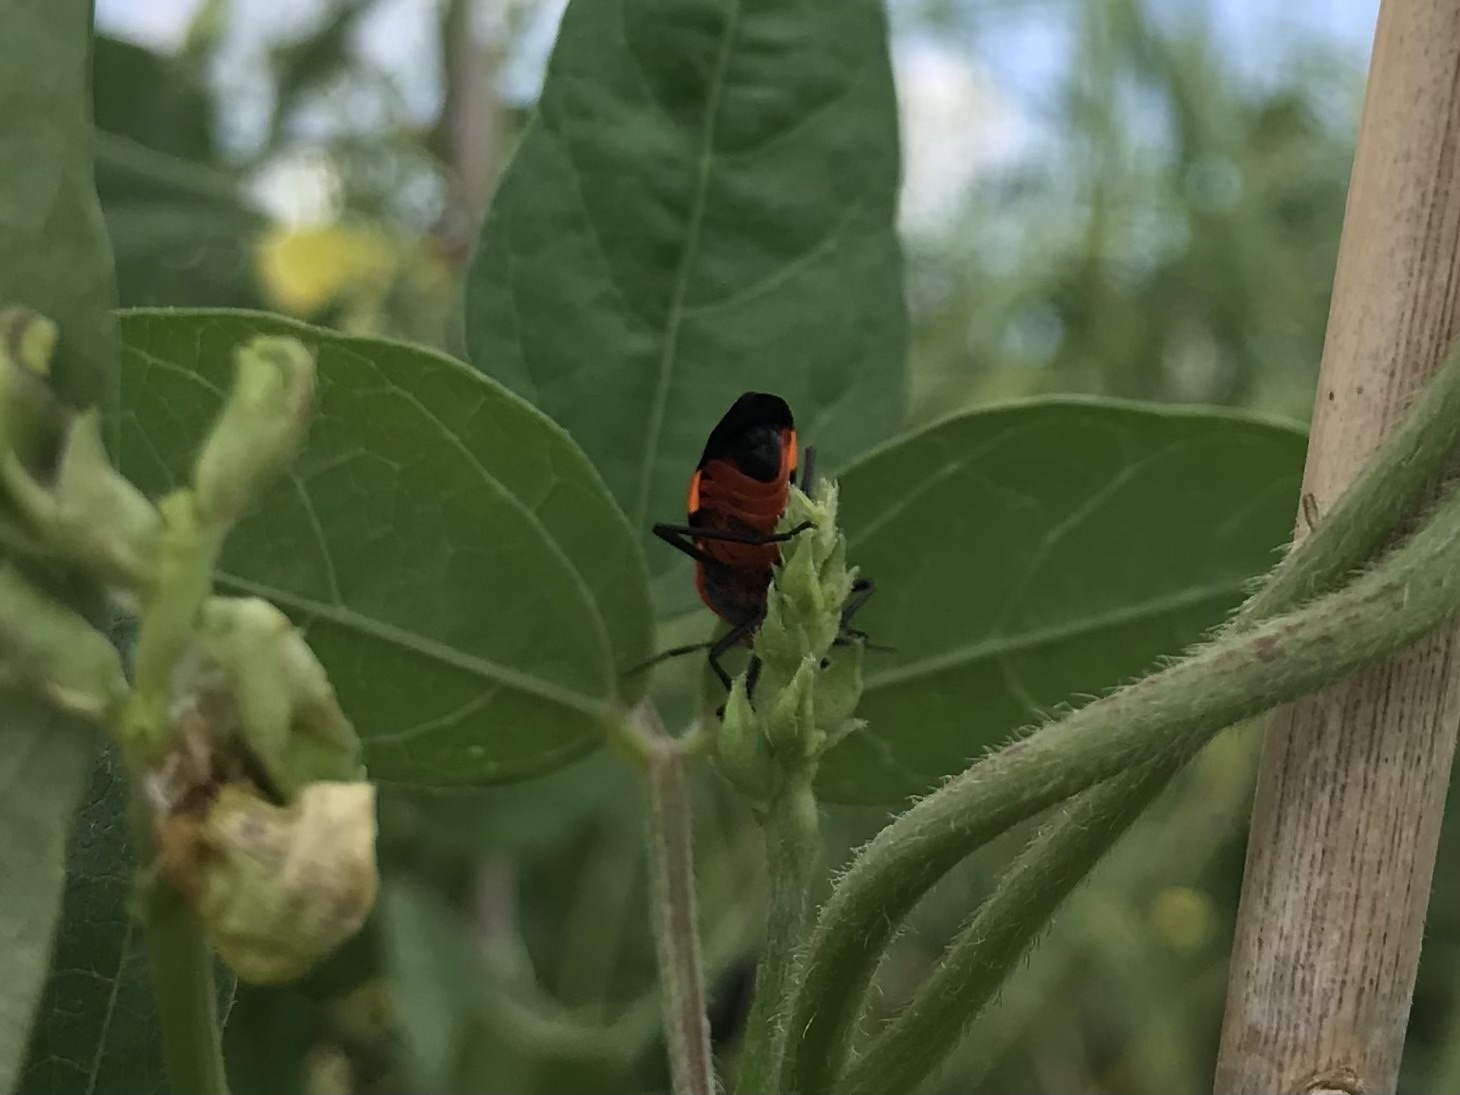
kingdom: Animalia
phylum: Arthropoda
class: Insecta
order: Hemiptera
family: Lygaeidae
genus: Oncopeltus
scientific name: Oncopeltus fasciatus
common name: Large milkweed bug
